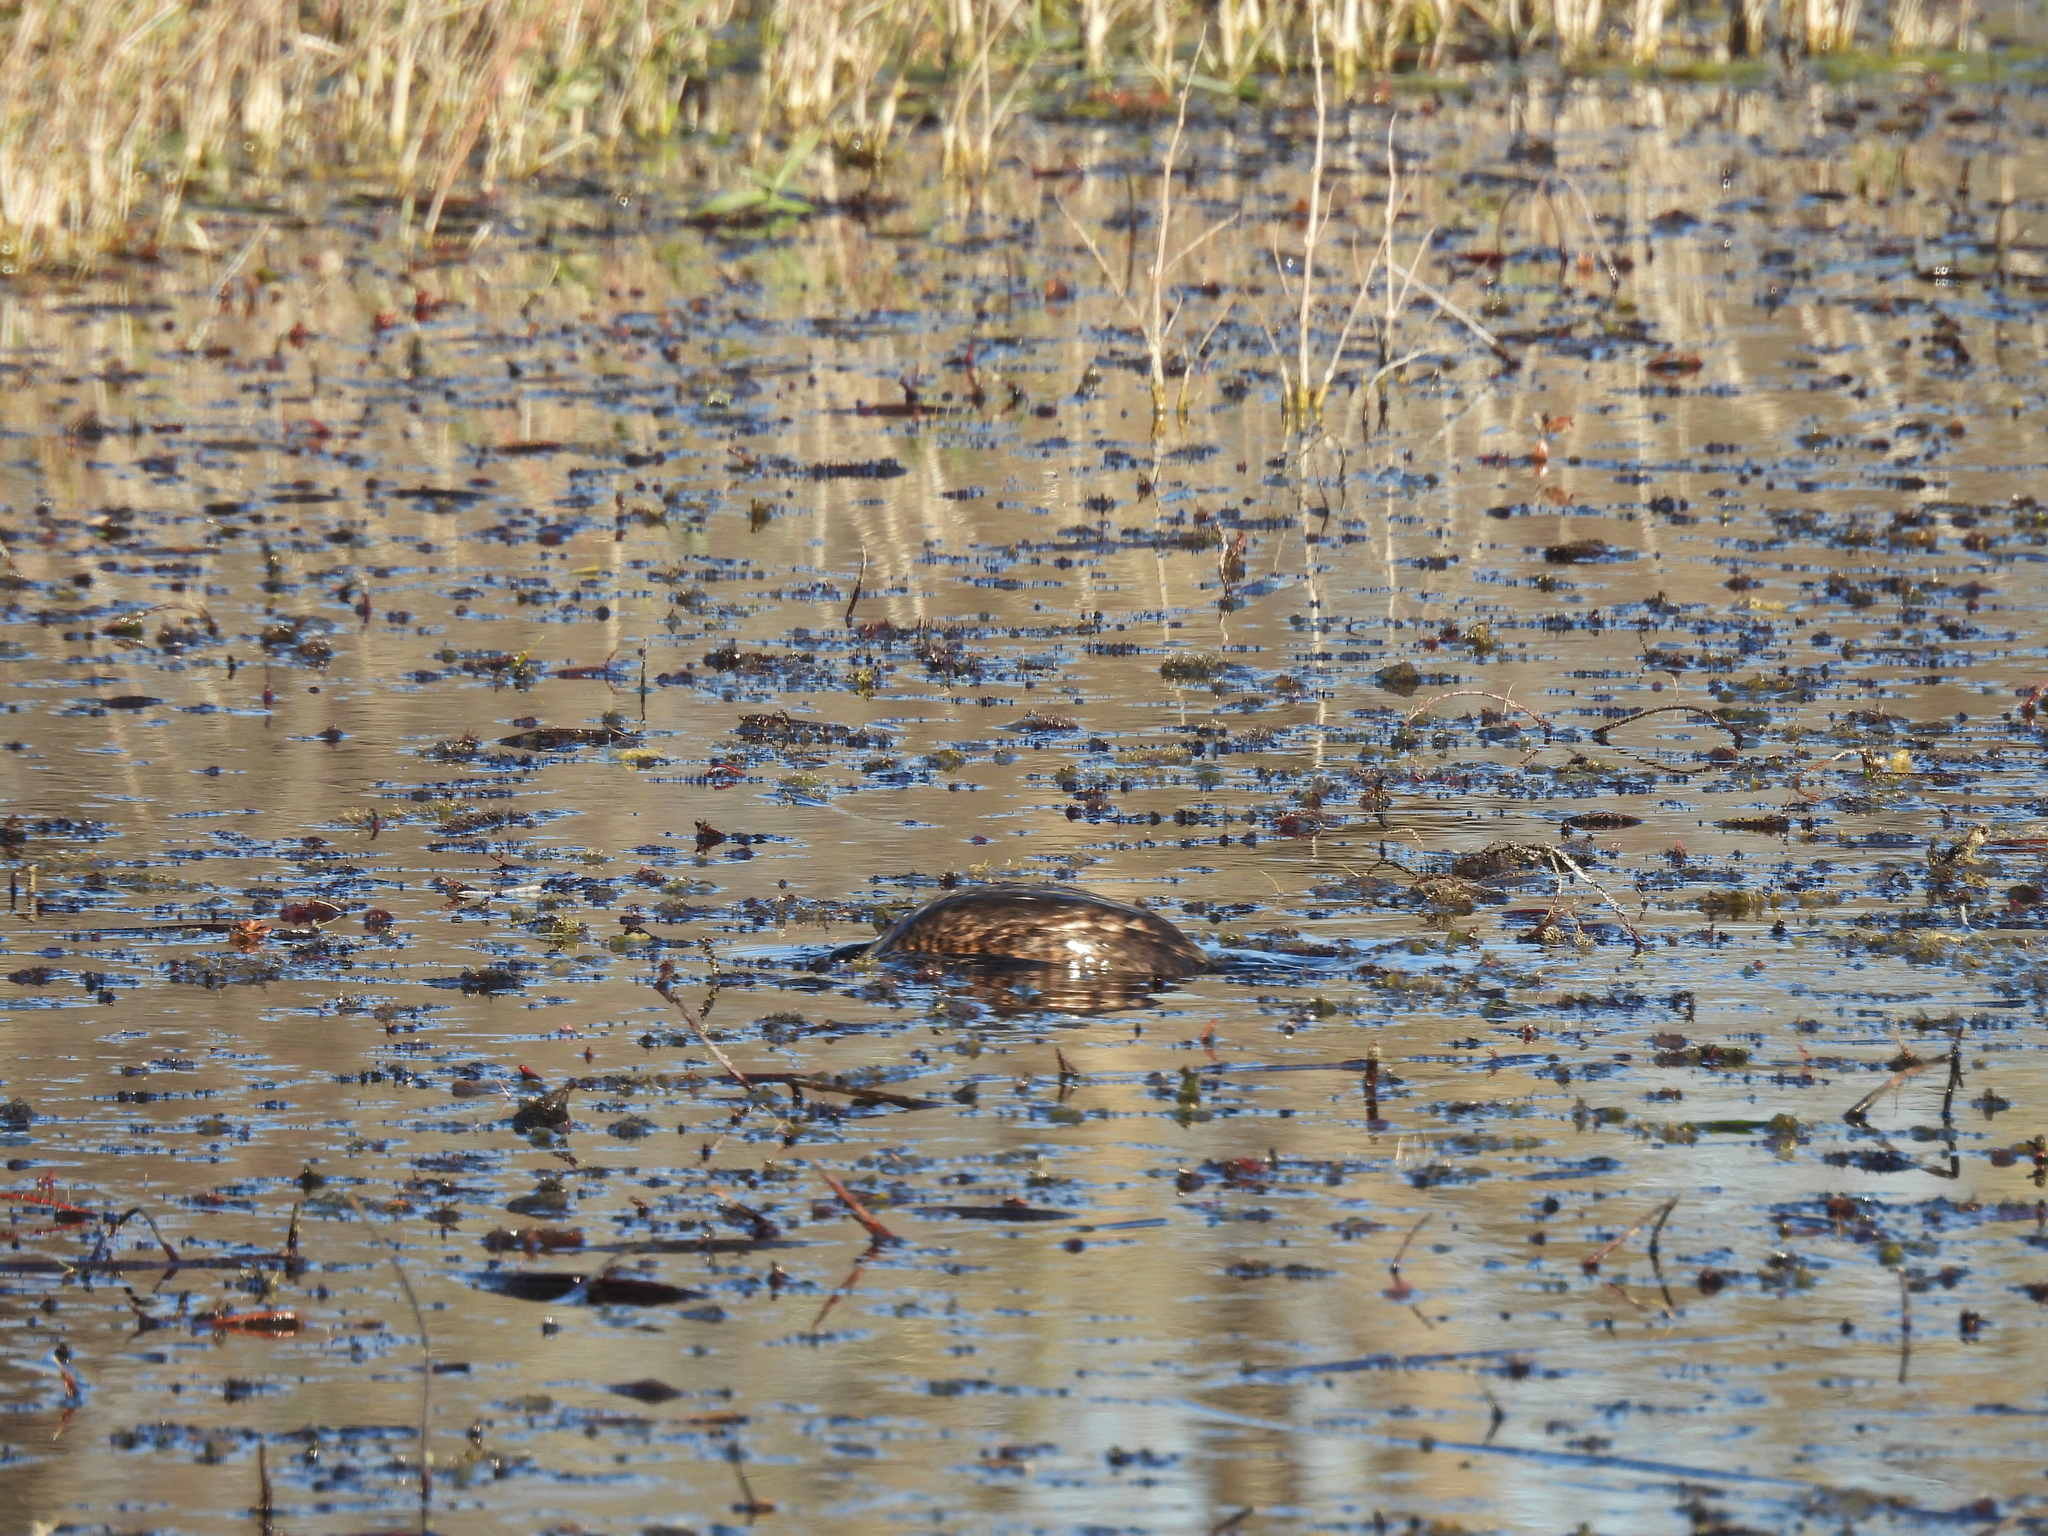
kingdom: Animalia
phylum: Chordata
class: Aves
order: Podicipediformes
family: Podicipedidae
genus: Podilymbus
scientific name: Podilymbus podiceps
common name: Pied-billed grebe
